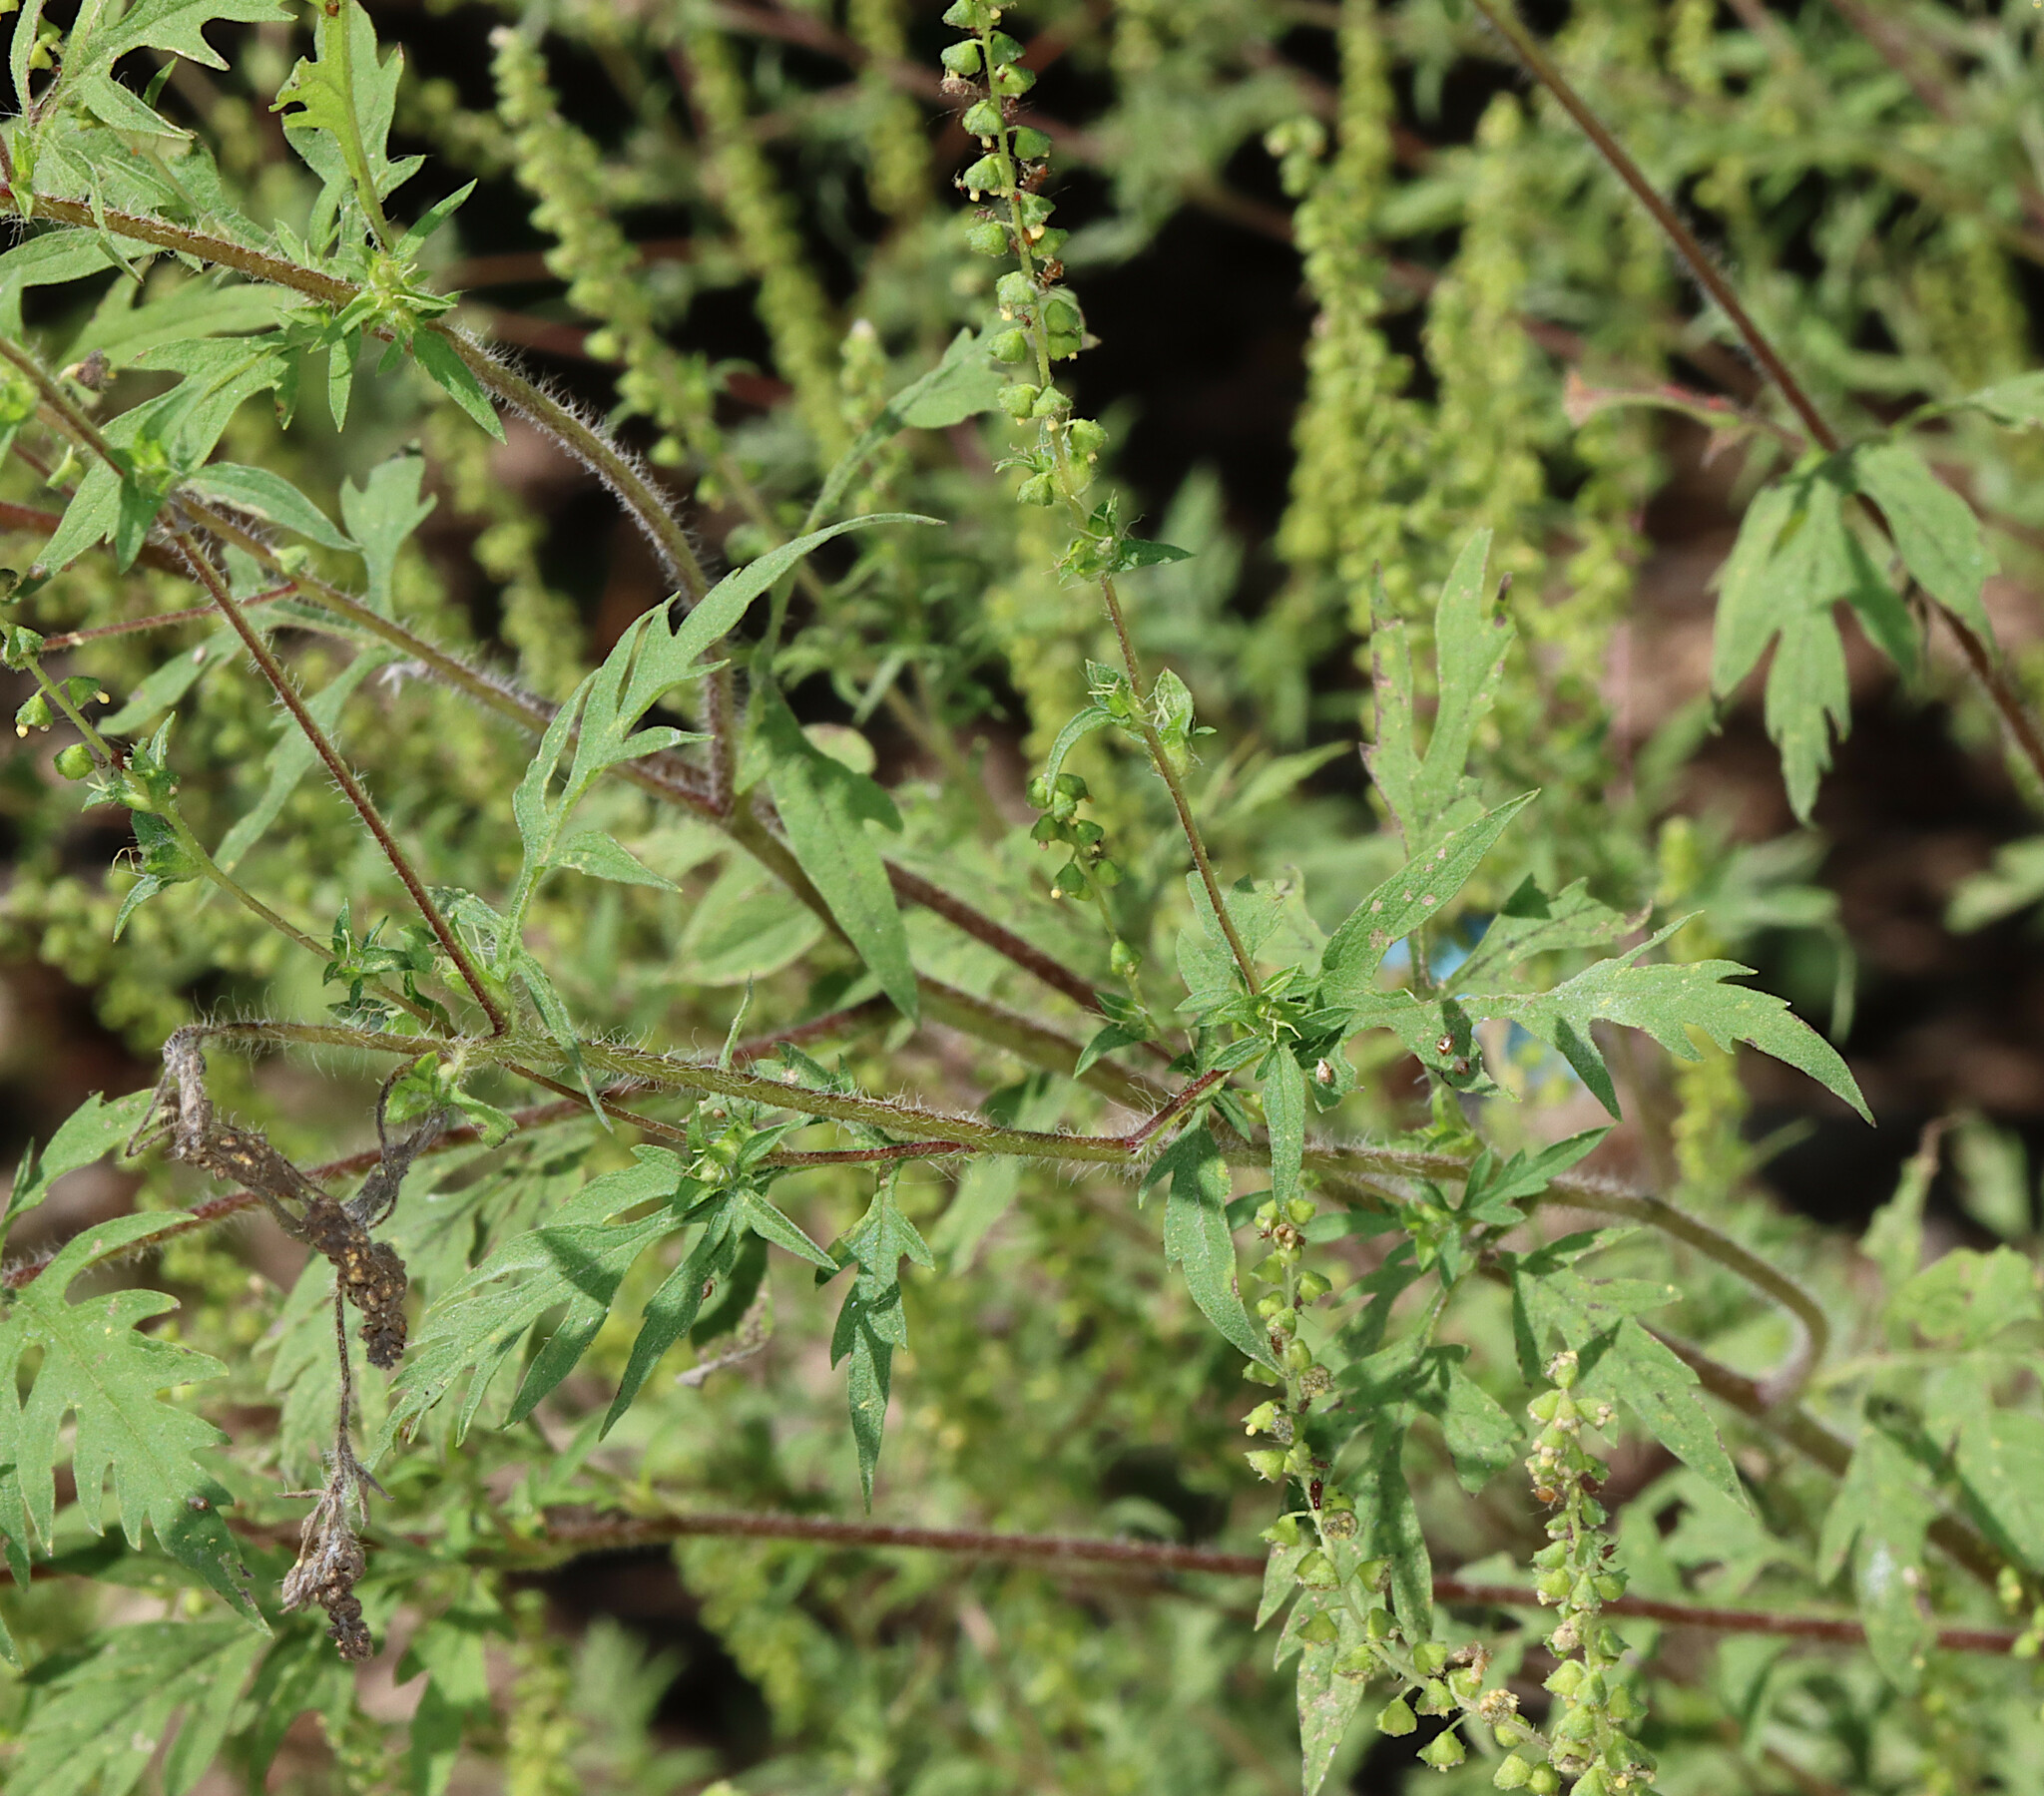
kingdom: Plantae
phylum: Tracheophyta
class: Magnoliopsida
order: Asterales
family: Asteraceae
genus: Ambrosia
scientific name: Ambrosia artemisiifolia
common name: Annual ragweed
